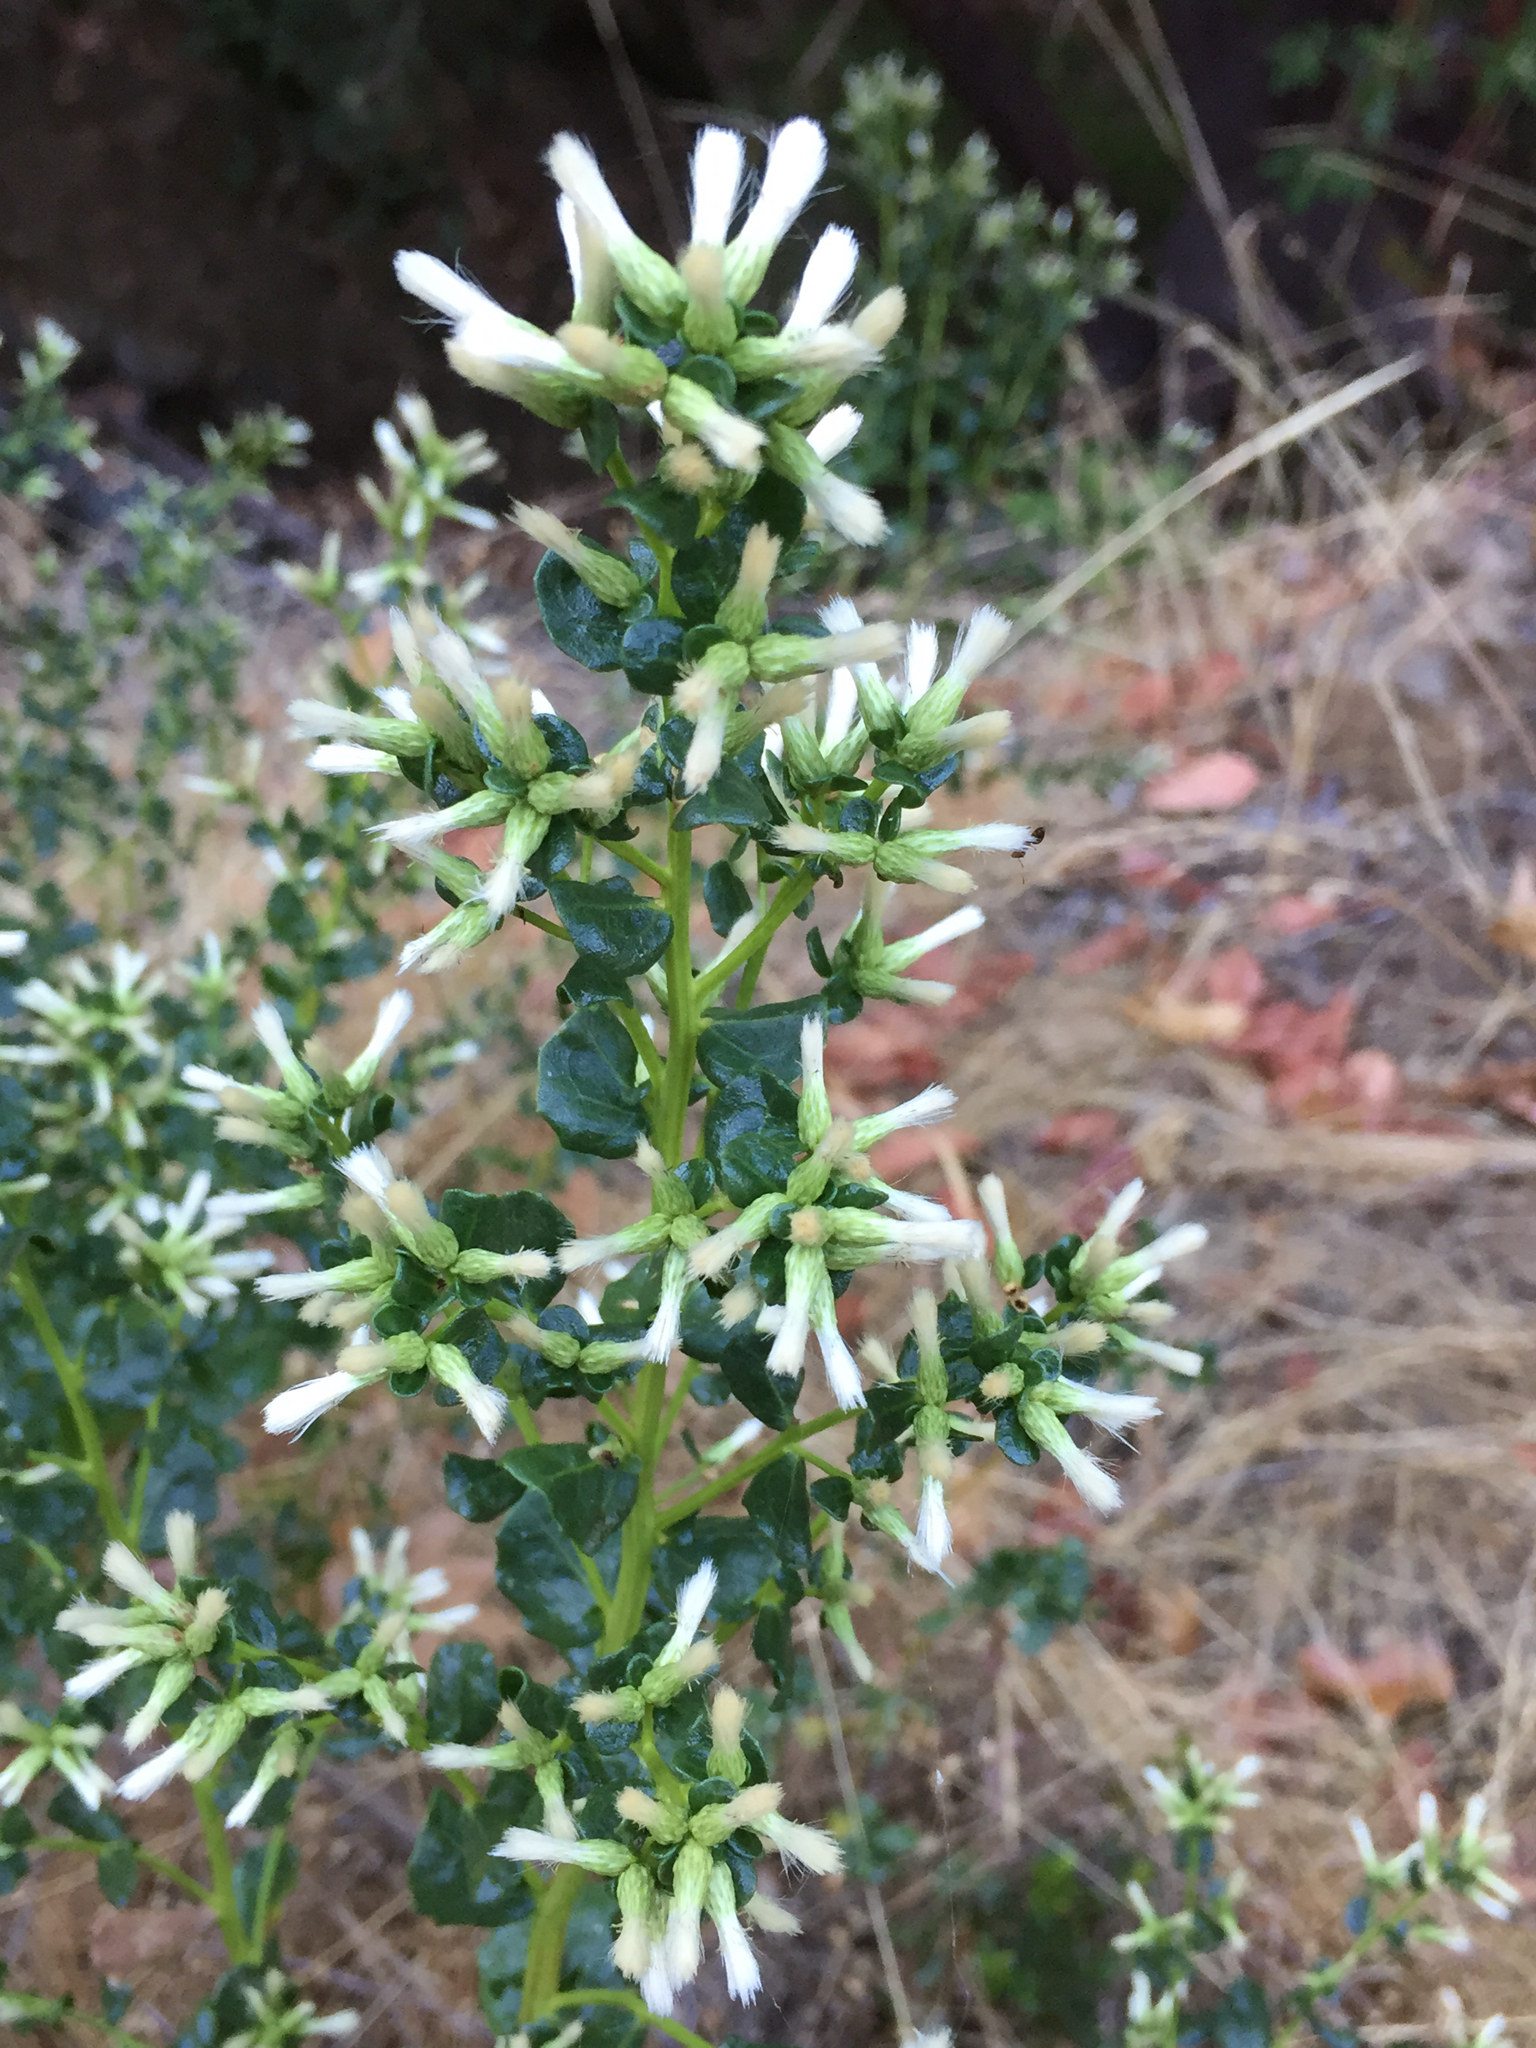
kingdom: Plantae
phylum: Tracheophyta
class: Magnoliopsida
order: Asterales
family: Asteraceae
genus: Baccharis
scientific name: Baccharis pilularis
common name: Coyotebrush
